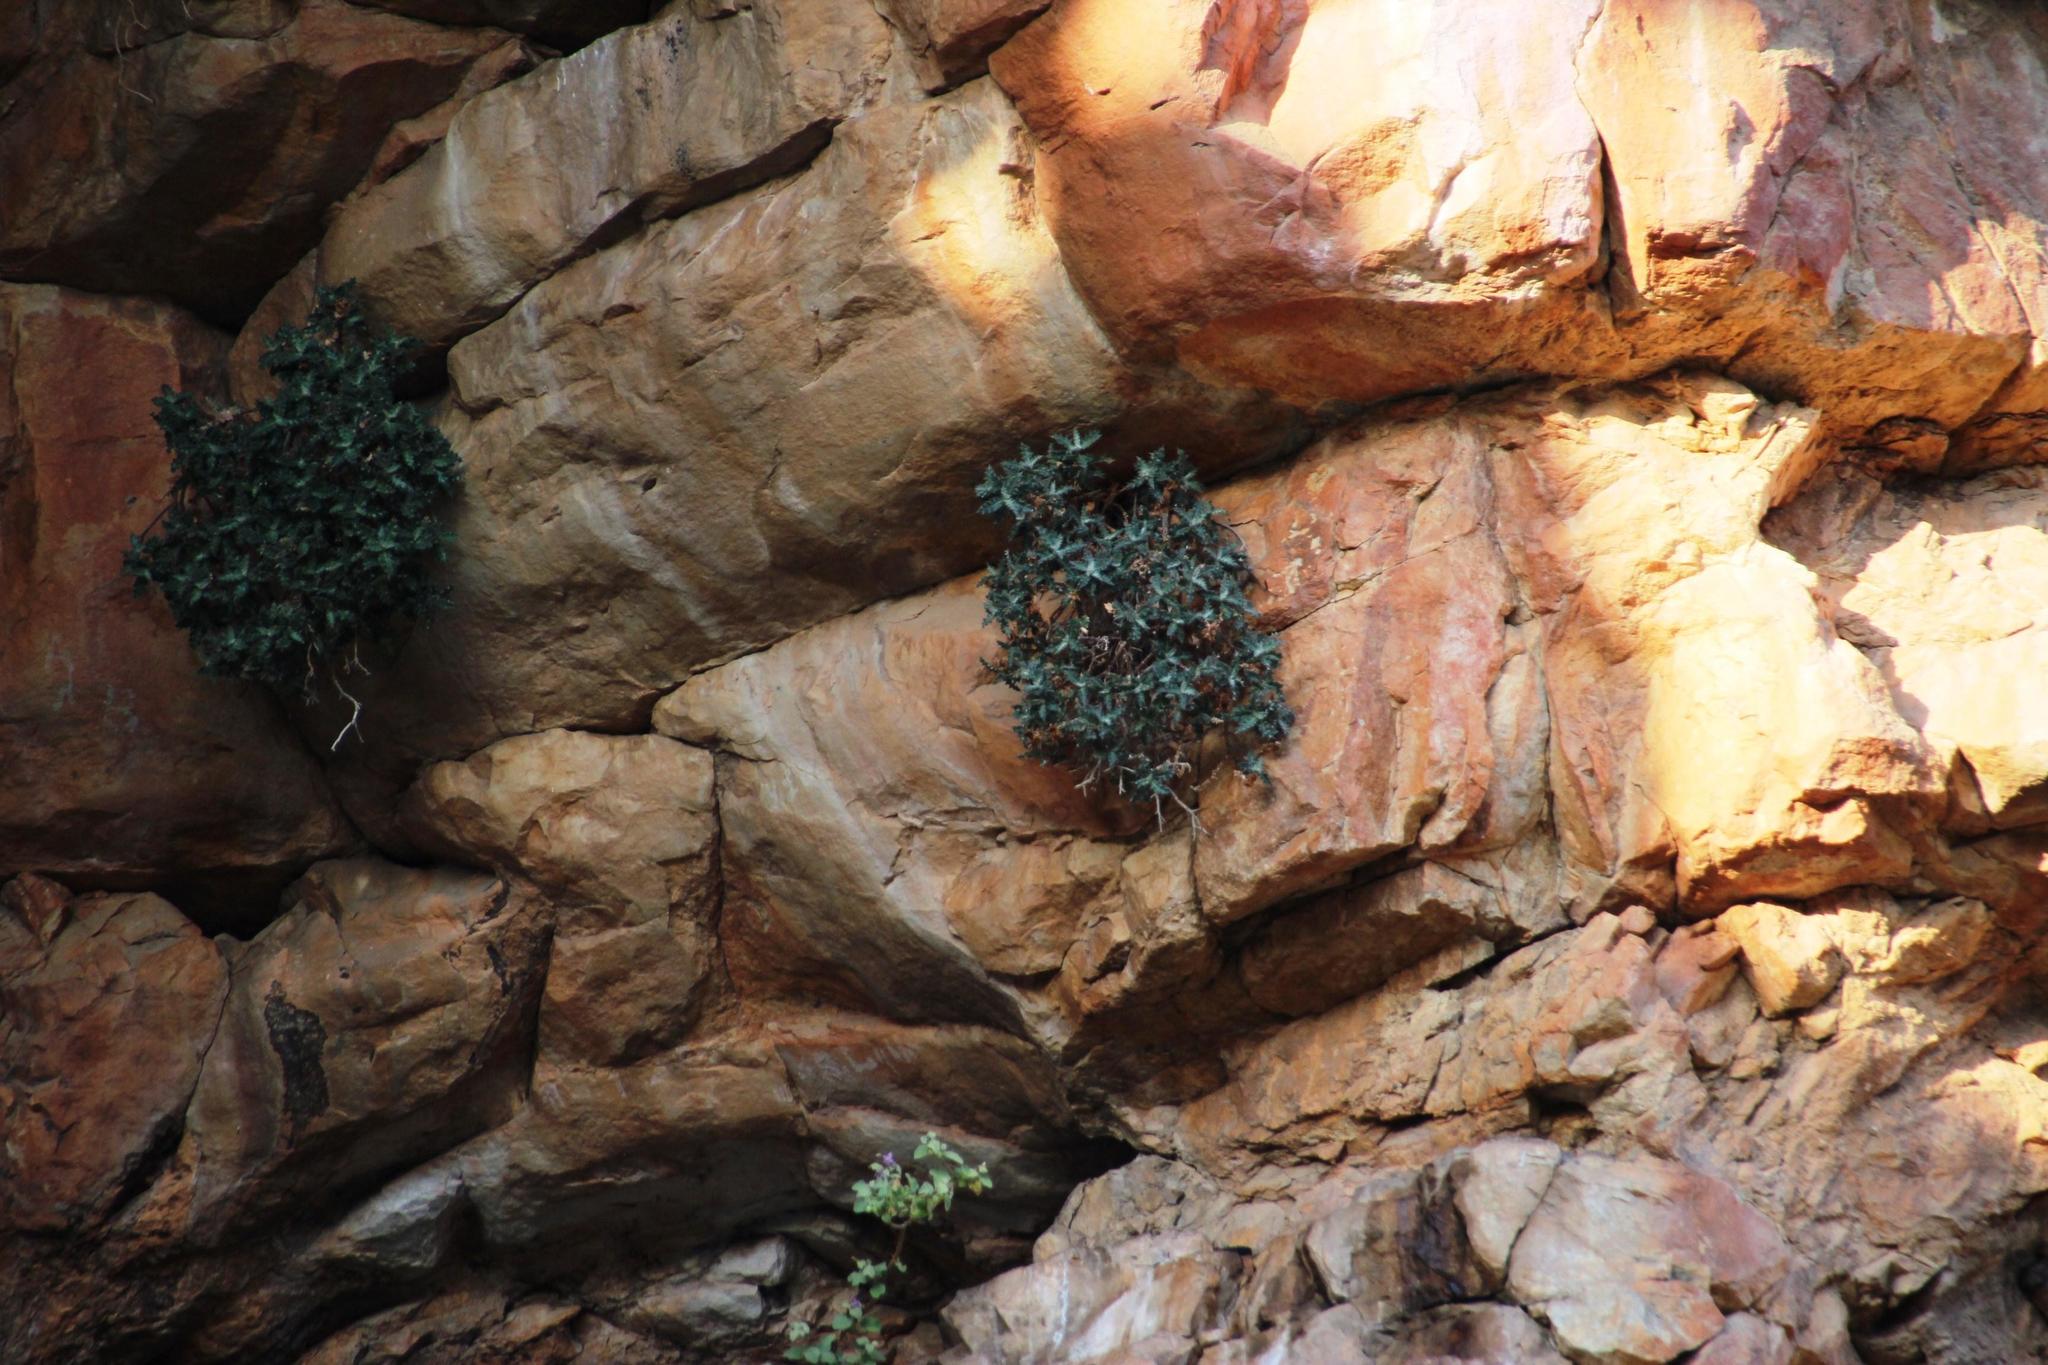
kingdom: Plantae
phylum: Tracheophyta
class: Magnoliopsida
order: Asterales
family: Asteraceae
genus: Berkheya
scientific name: Berkheya dregei
